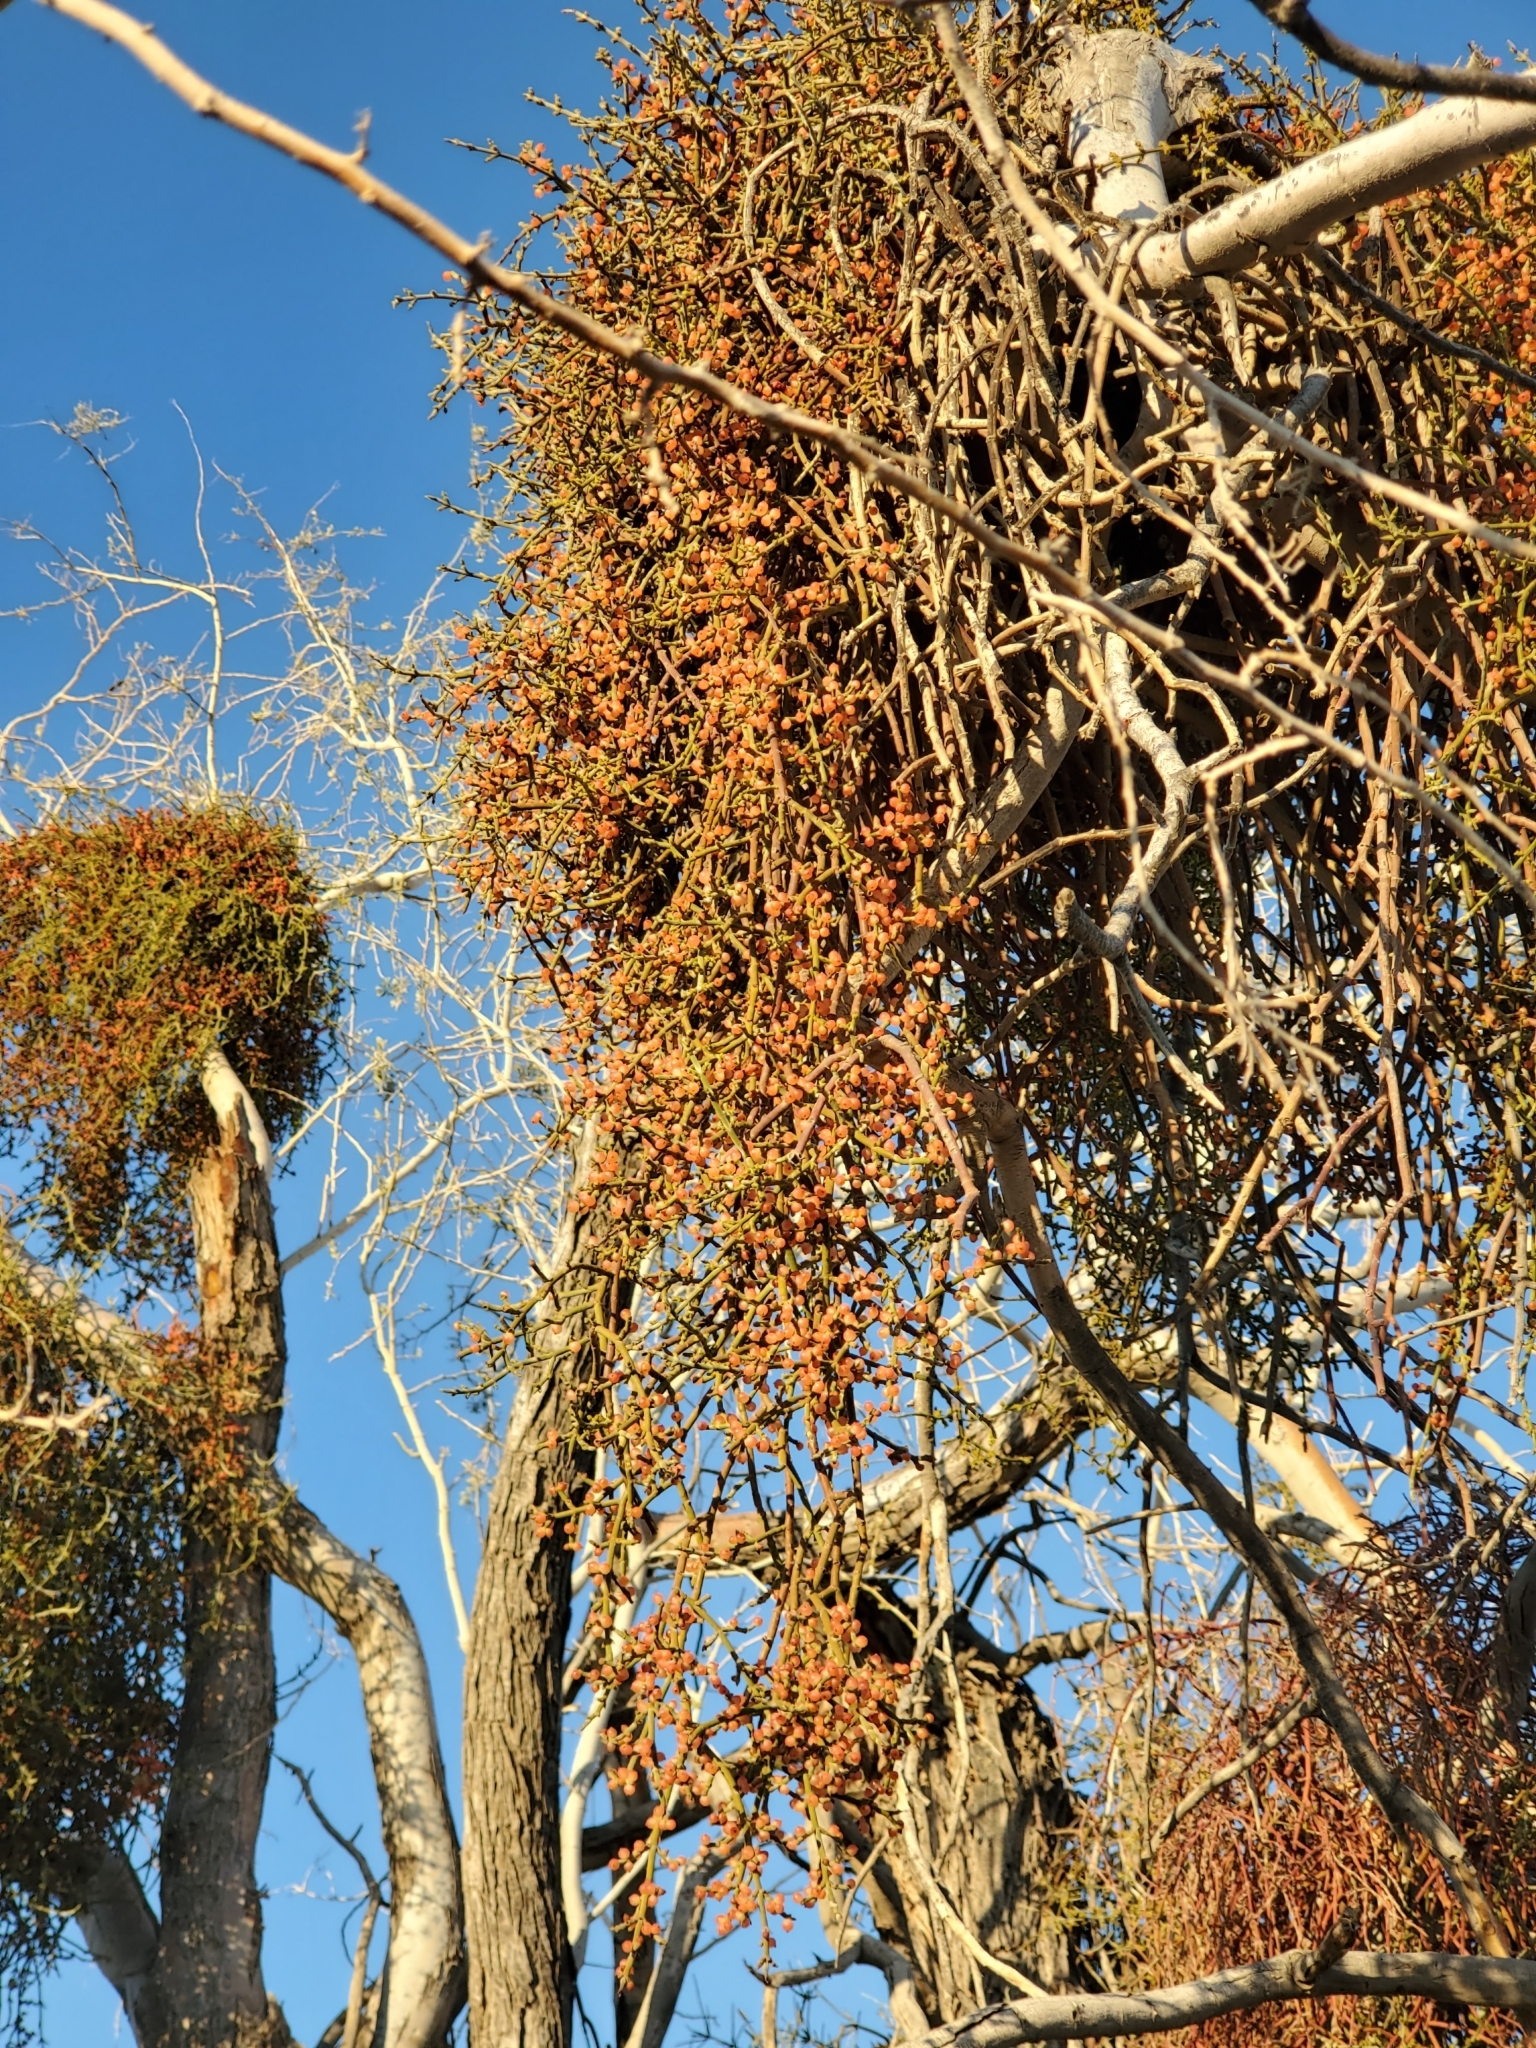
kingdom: Plantae
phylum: Tracheophyta
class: Magnoliopsida
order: Santalales
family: Viscaceae
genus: Phoradendron
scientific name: Phoradendron californicum
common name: Acacia mistletoe
